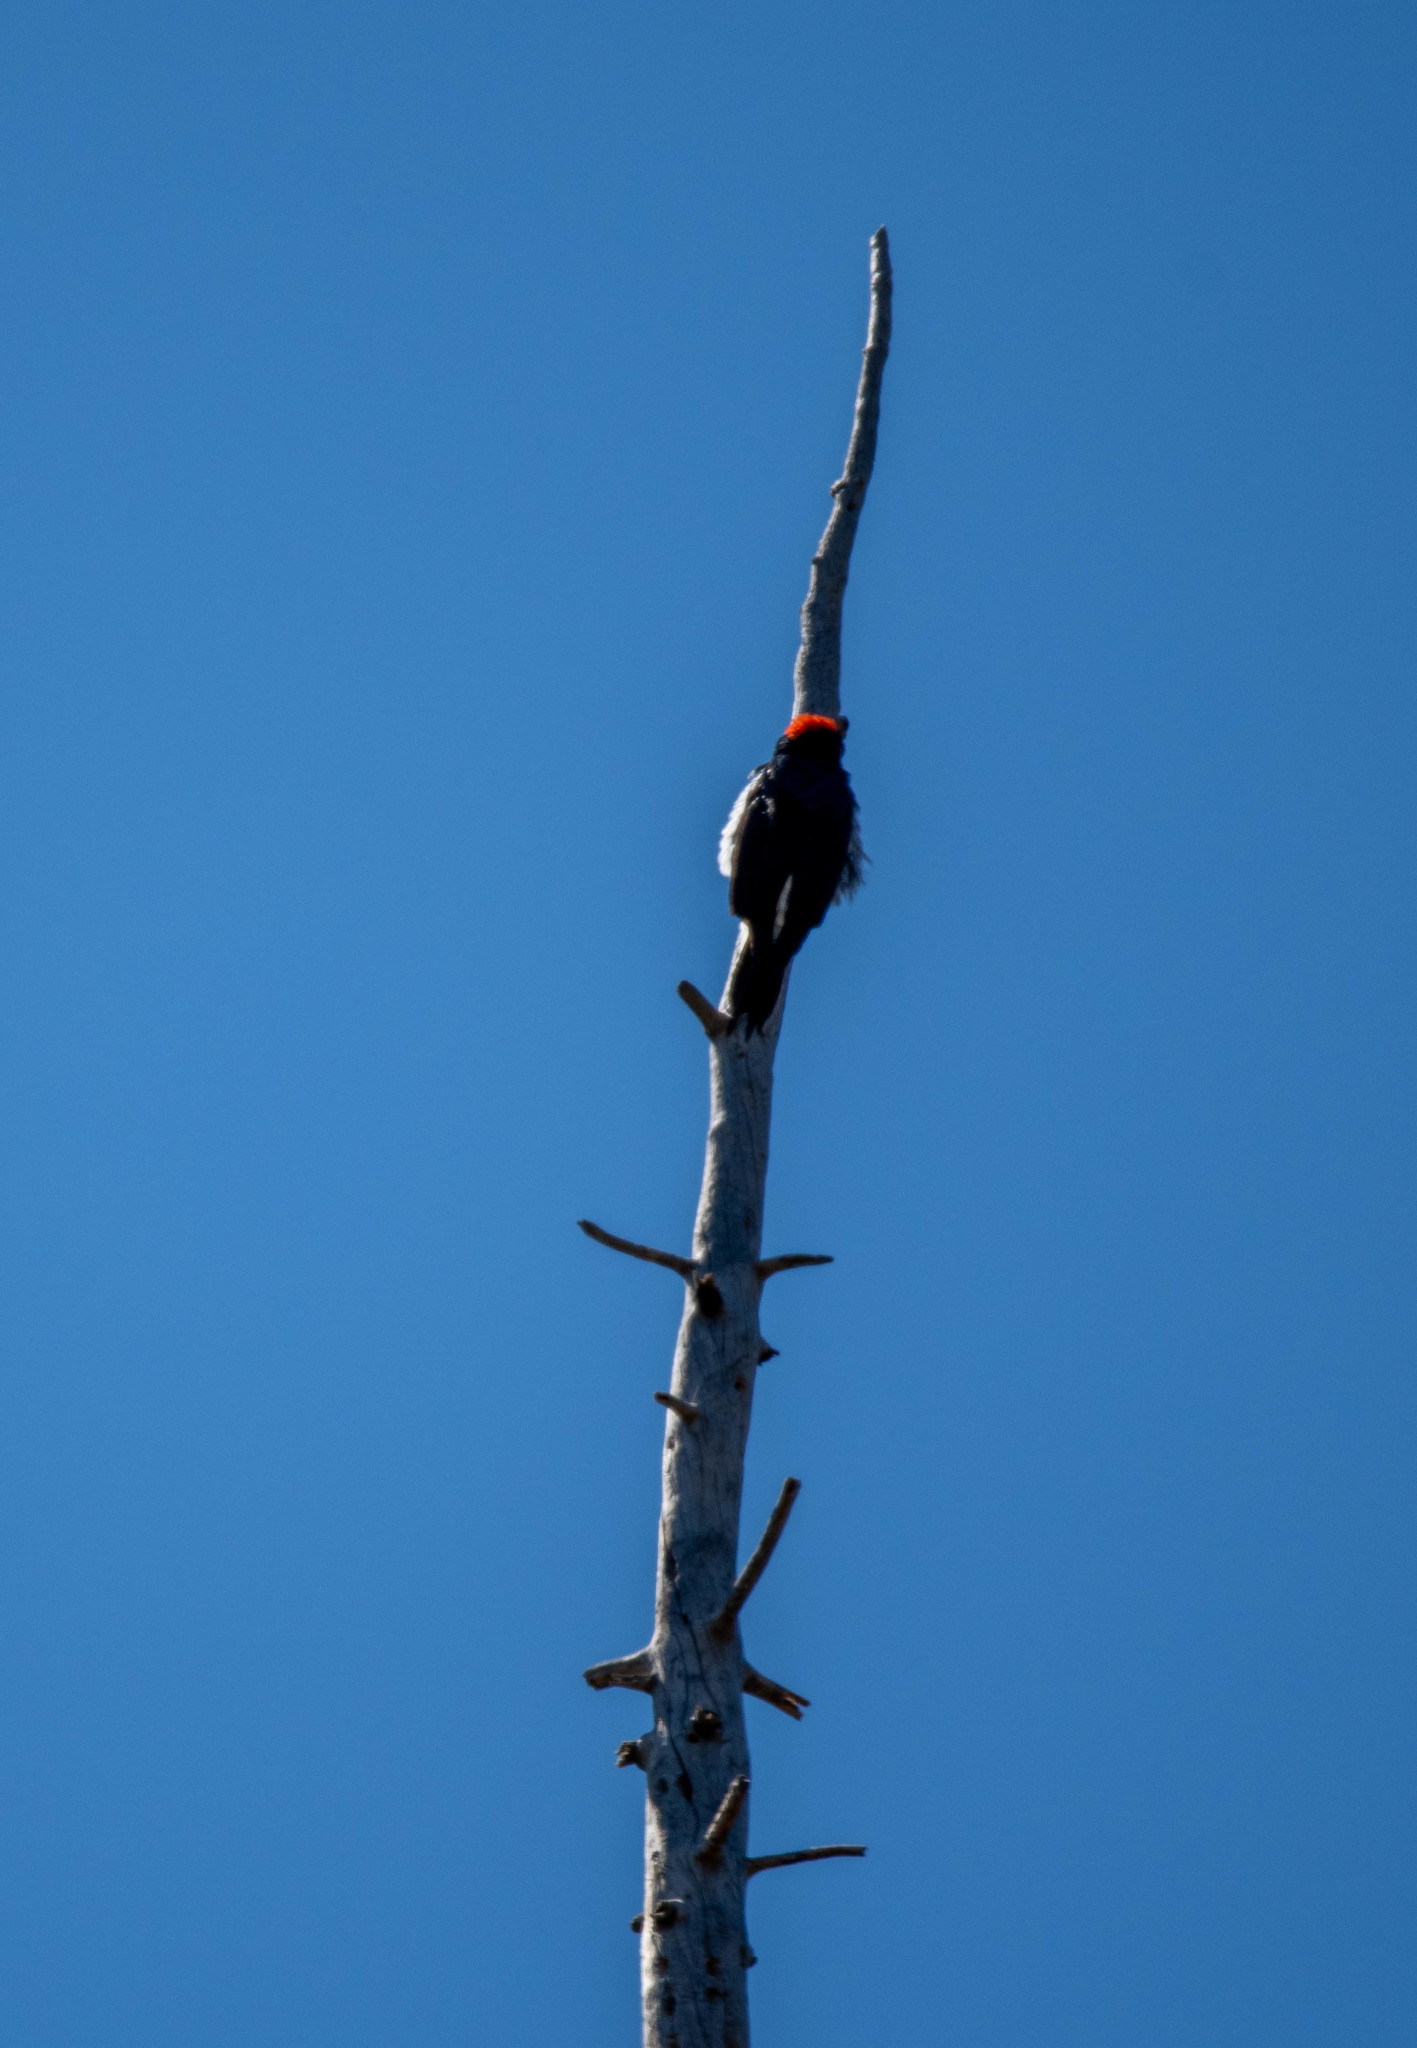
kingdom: Animalia
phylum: Chordata
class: Aves
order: Piciformes
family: Picidae
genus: Melanerpes
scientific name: Melanerpes formicivorus
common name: Acorn woodpecker
